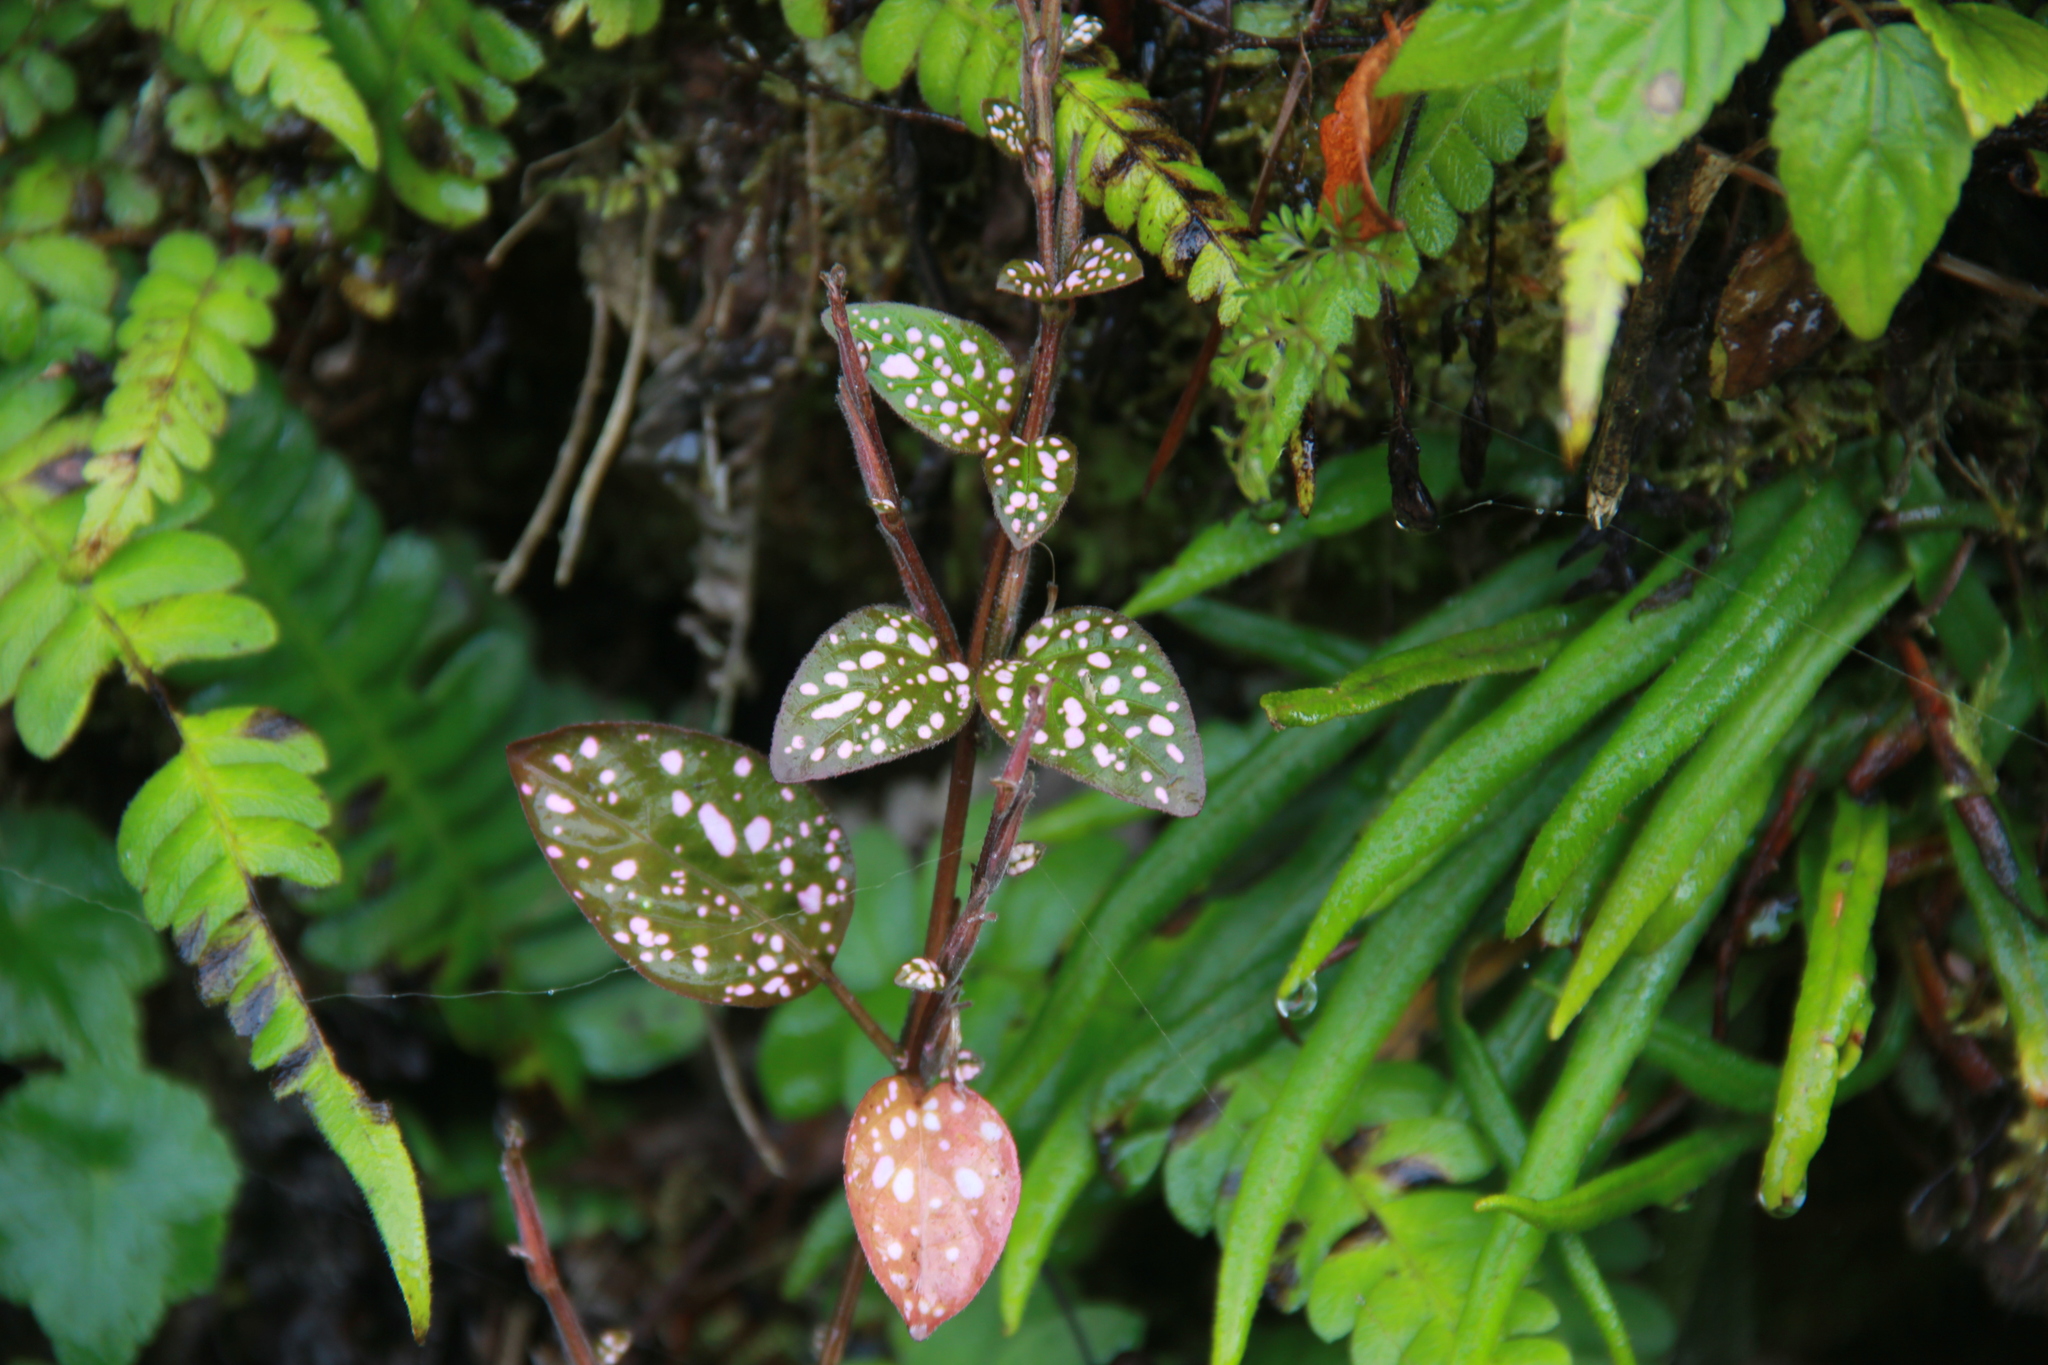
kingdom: Plantae
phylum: Tracheophyta
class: Magnoliopsida
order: Lamiales
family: Acanthaceae
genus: Hypoestes
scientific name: Hypoestes phyllostachya
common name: Polkadot-plant
